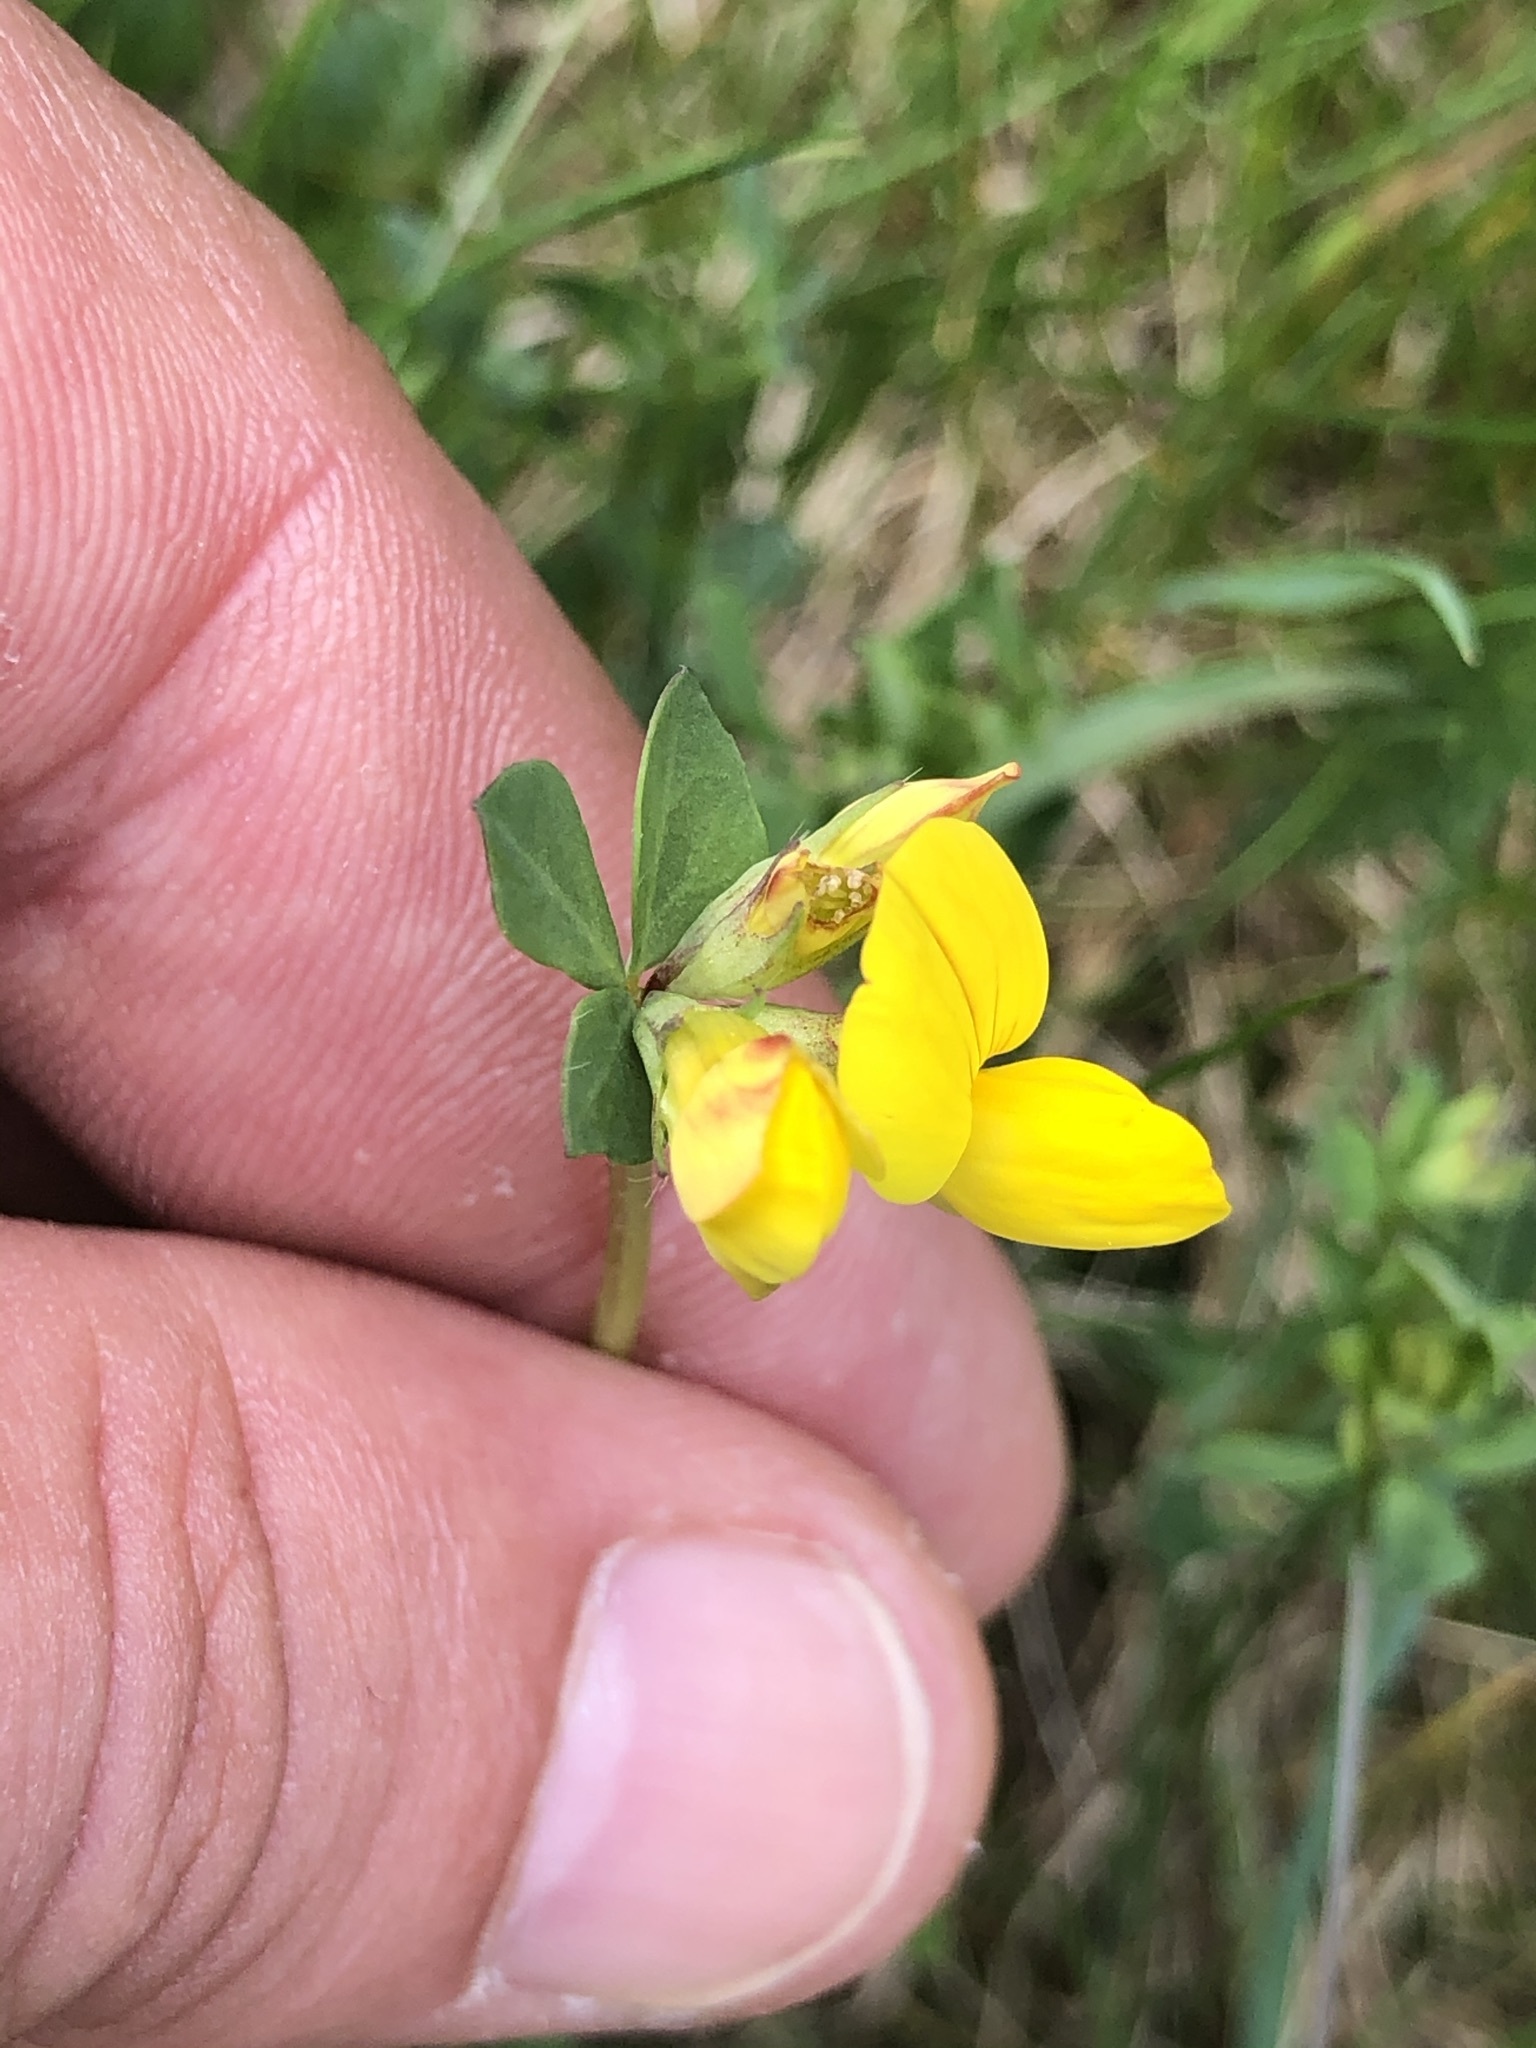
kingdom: Plantae
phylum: Tracheophyta
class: Magnoliopsida
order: Fabales
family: Fabaceae
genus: Lotus
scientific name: Lotus corniculatus
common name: Common bird's-foot-trefoil
